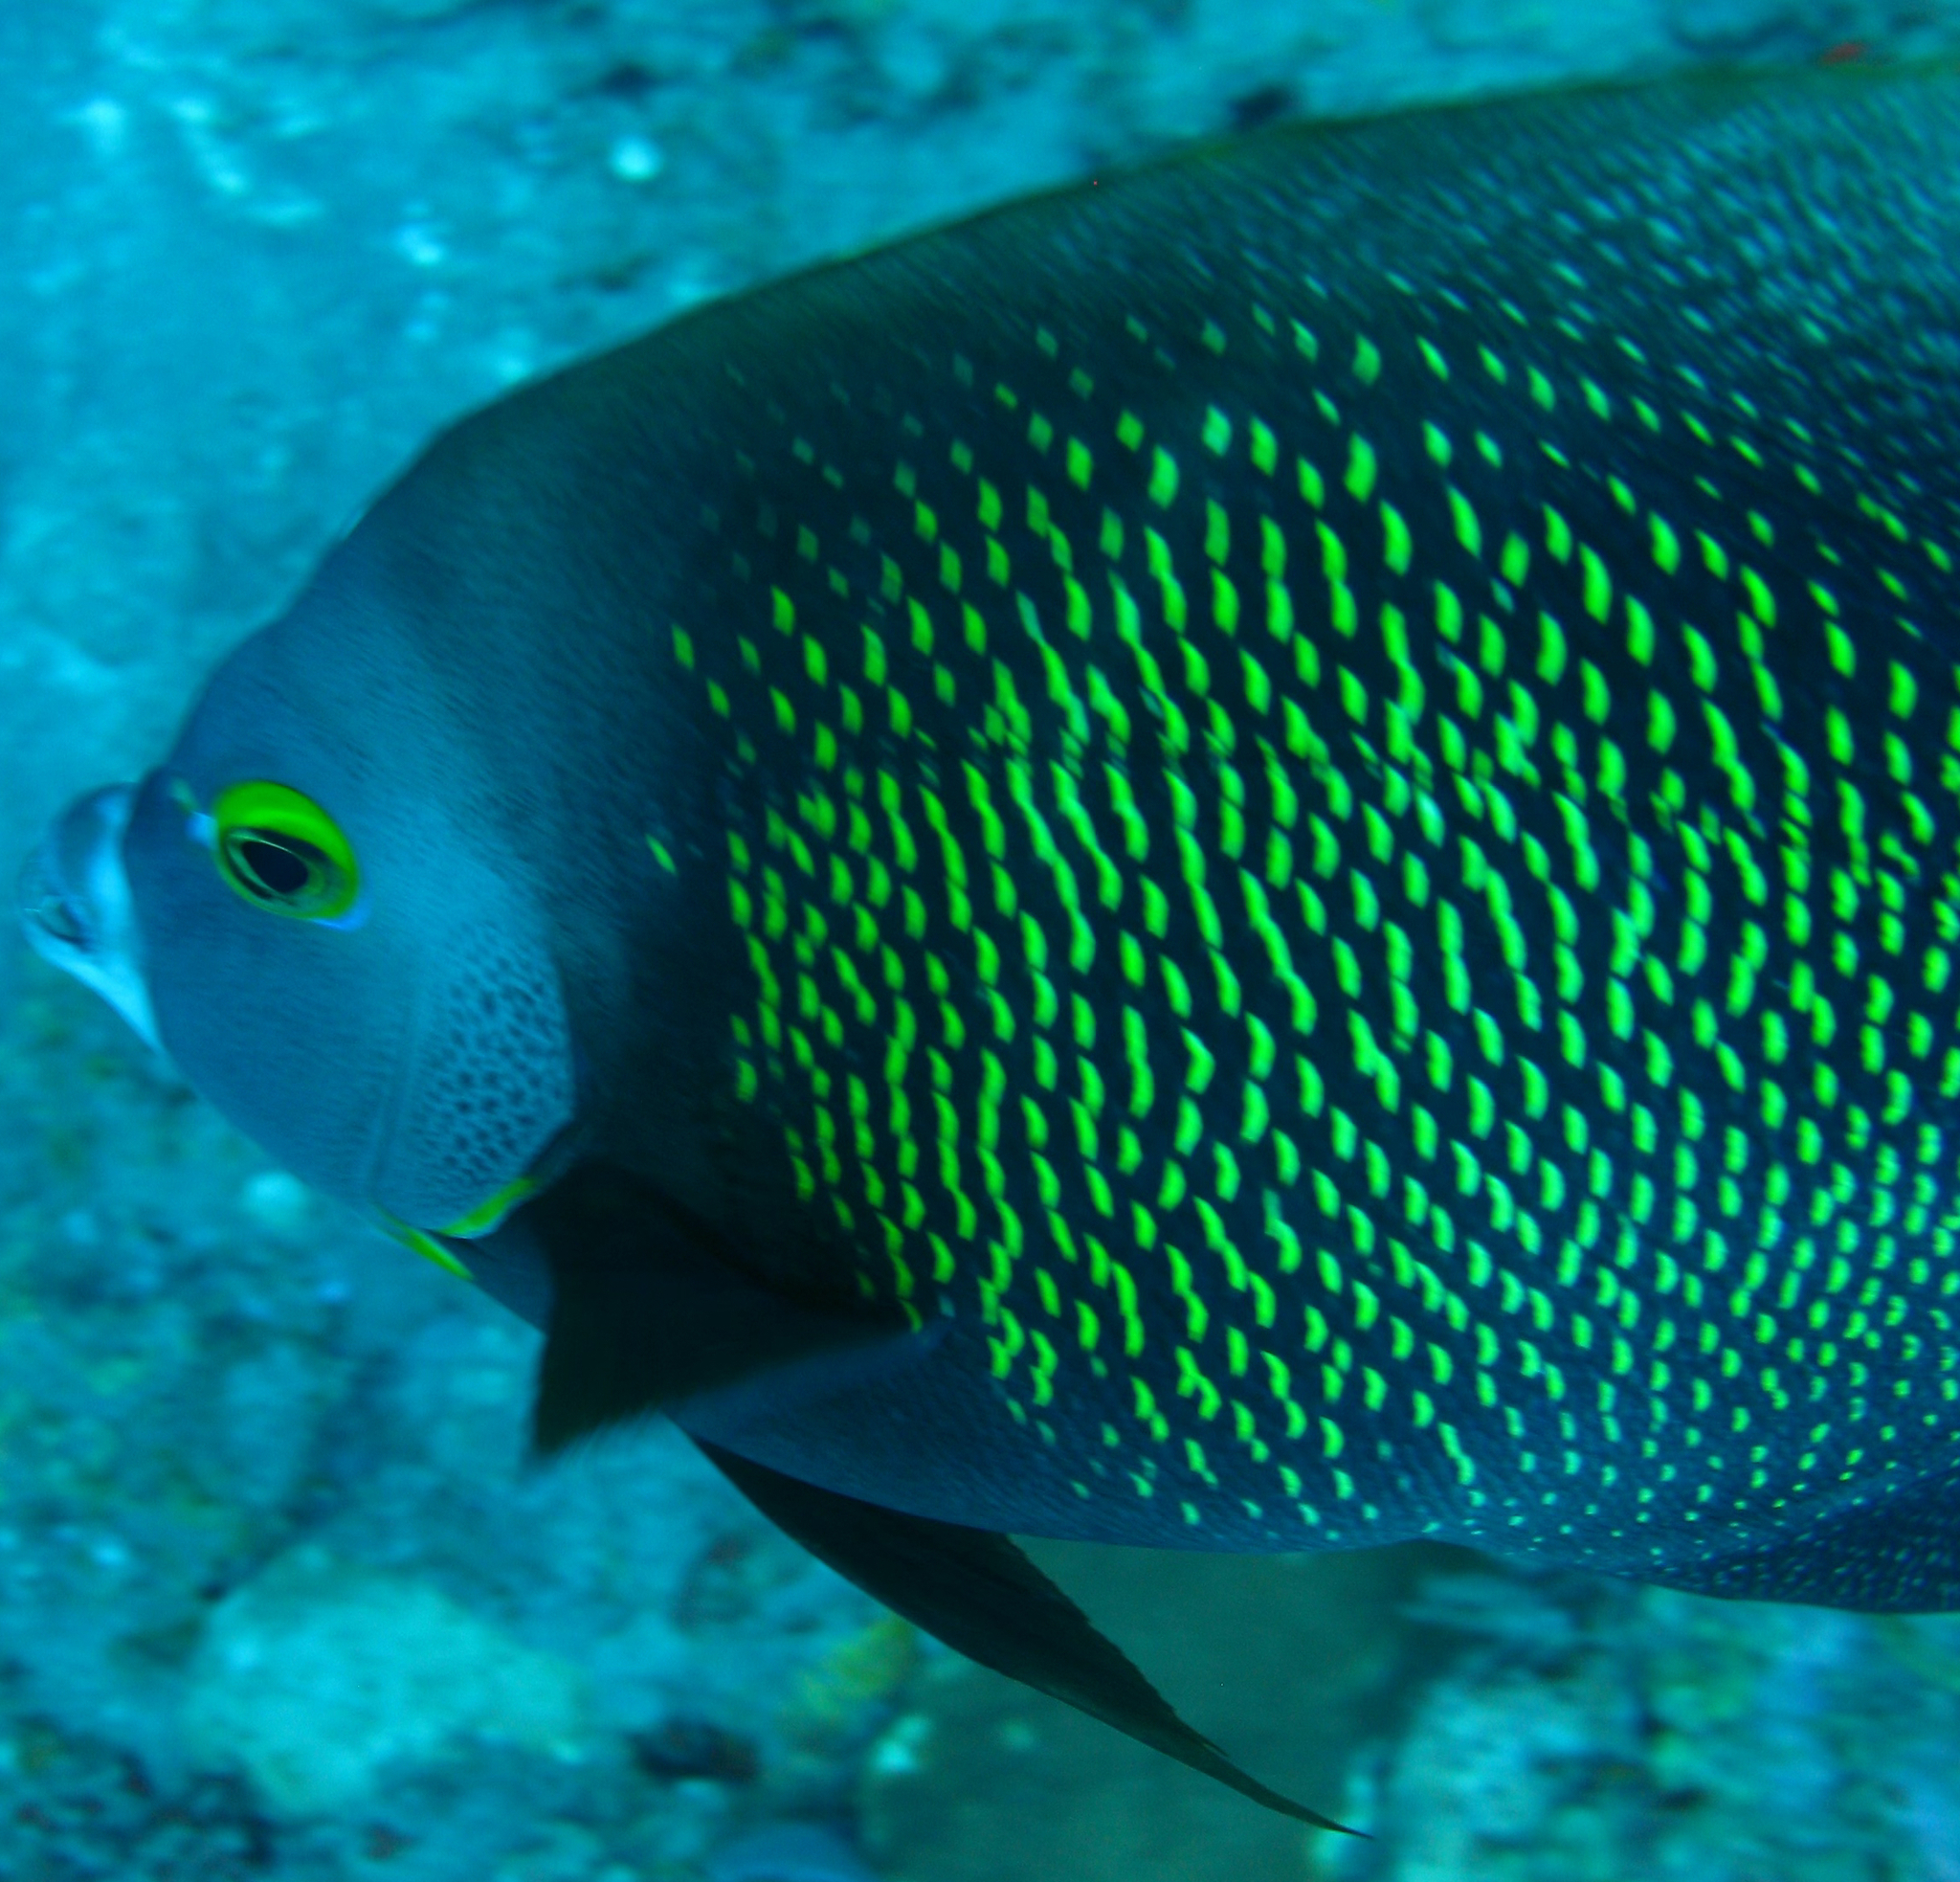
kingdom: Animalia
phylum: Chordata
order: Perciformes
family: Pomacanthidae
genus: Pomacanthus
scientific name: Pomacanthus paru
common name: French angelfish
